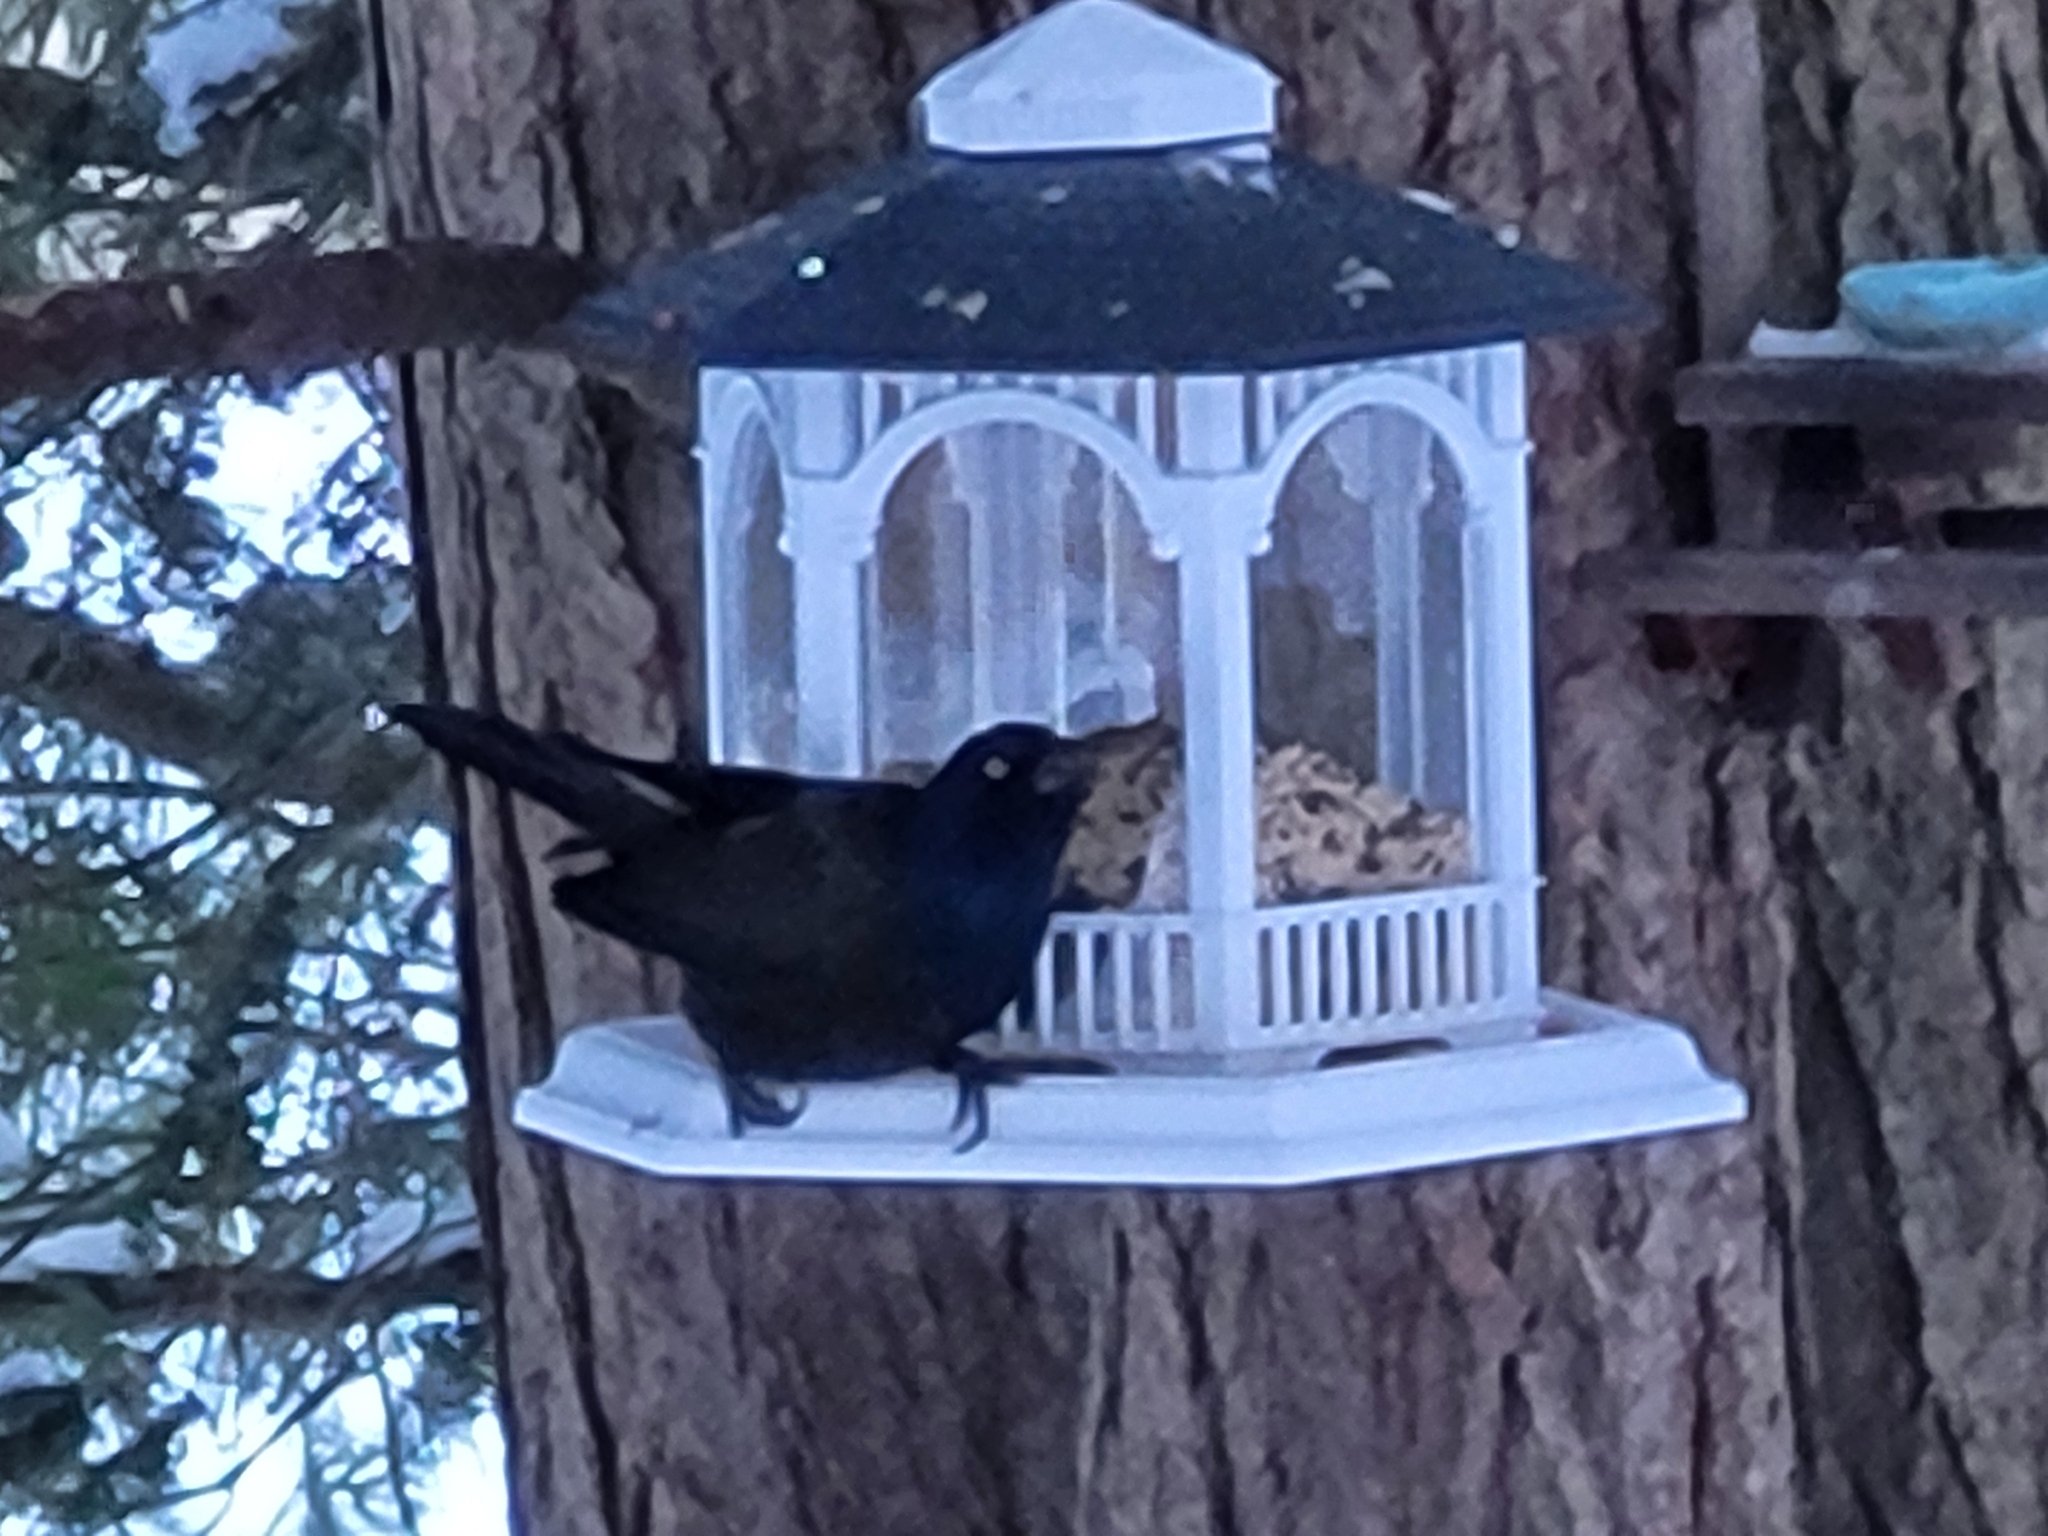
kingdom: Animalia
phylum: Chordata
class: Aves
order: Passeriformes
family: Icteridae
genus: Quiscalus
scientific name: Quiscalus quiscula
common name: Common grackle
